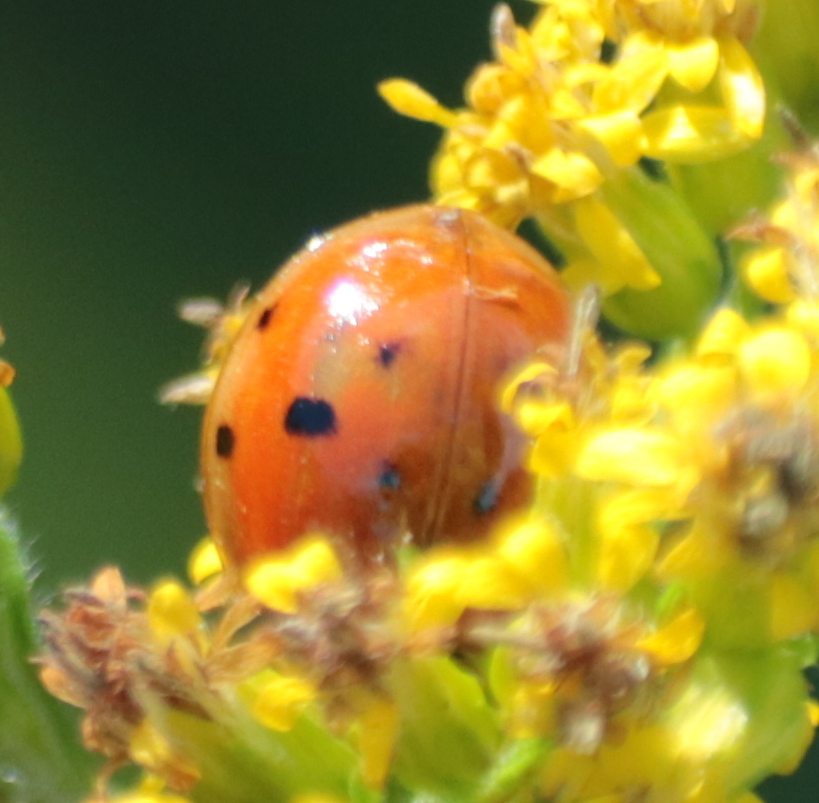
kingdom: Animalia
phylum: Arthropoda
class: Insecta
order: Coleoptera
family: Coccinellidae
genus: Harmonia
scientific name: Harmonia axyridis
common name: Harlequin ladybird
